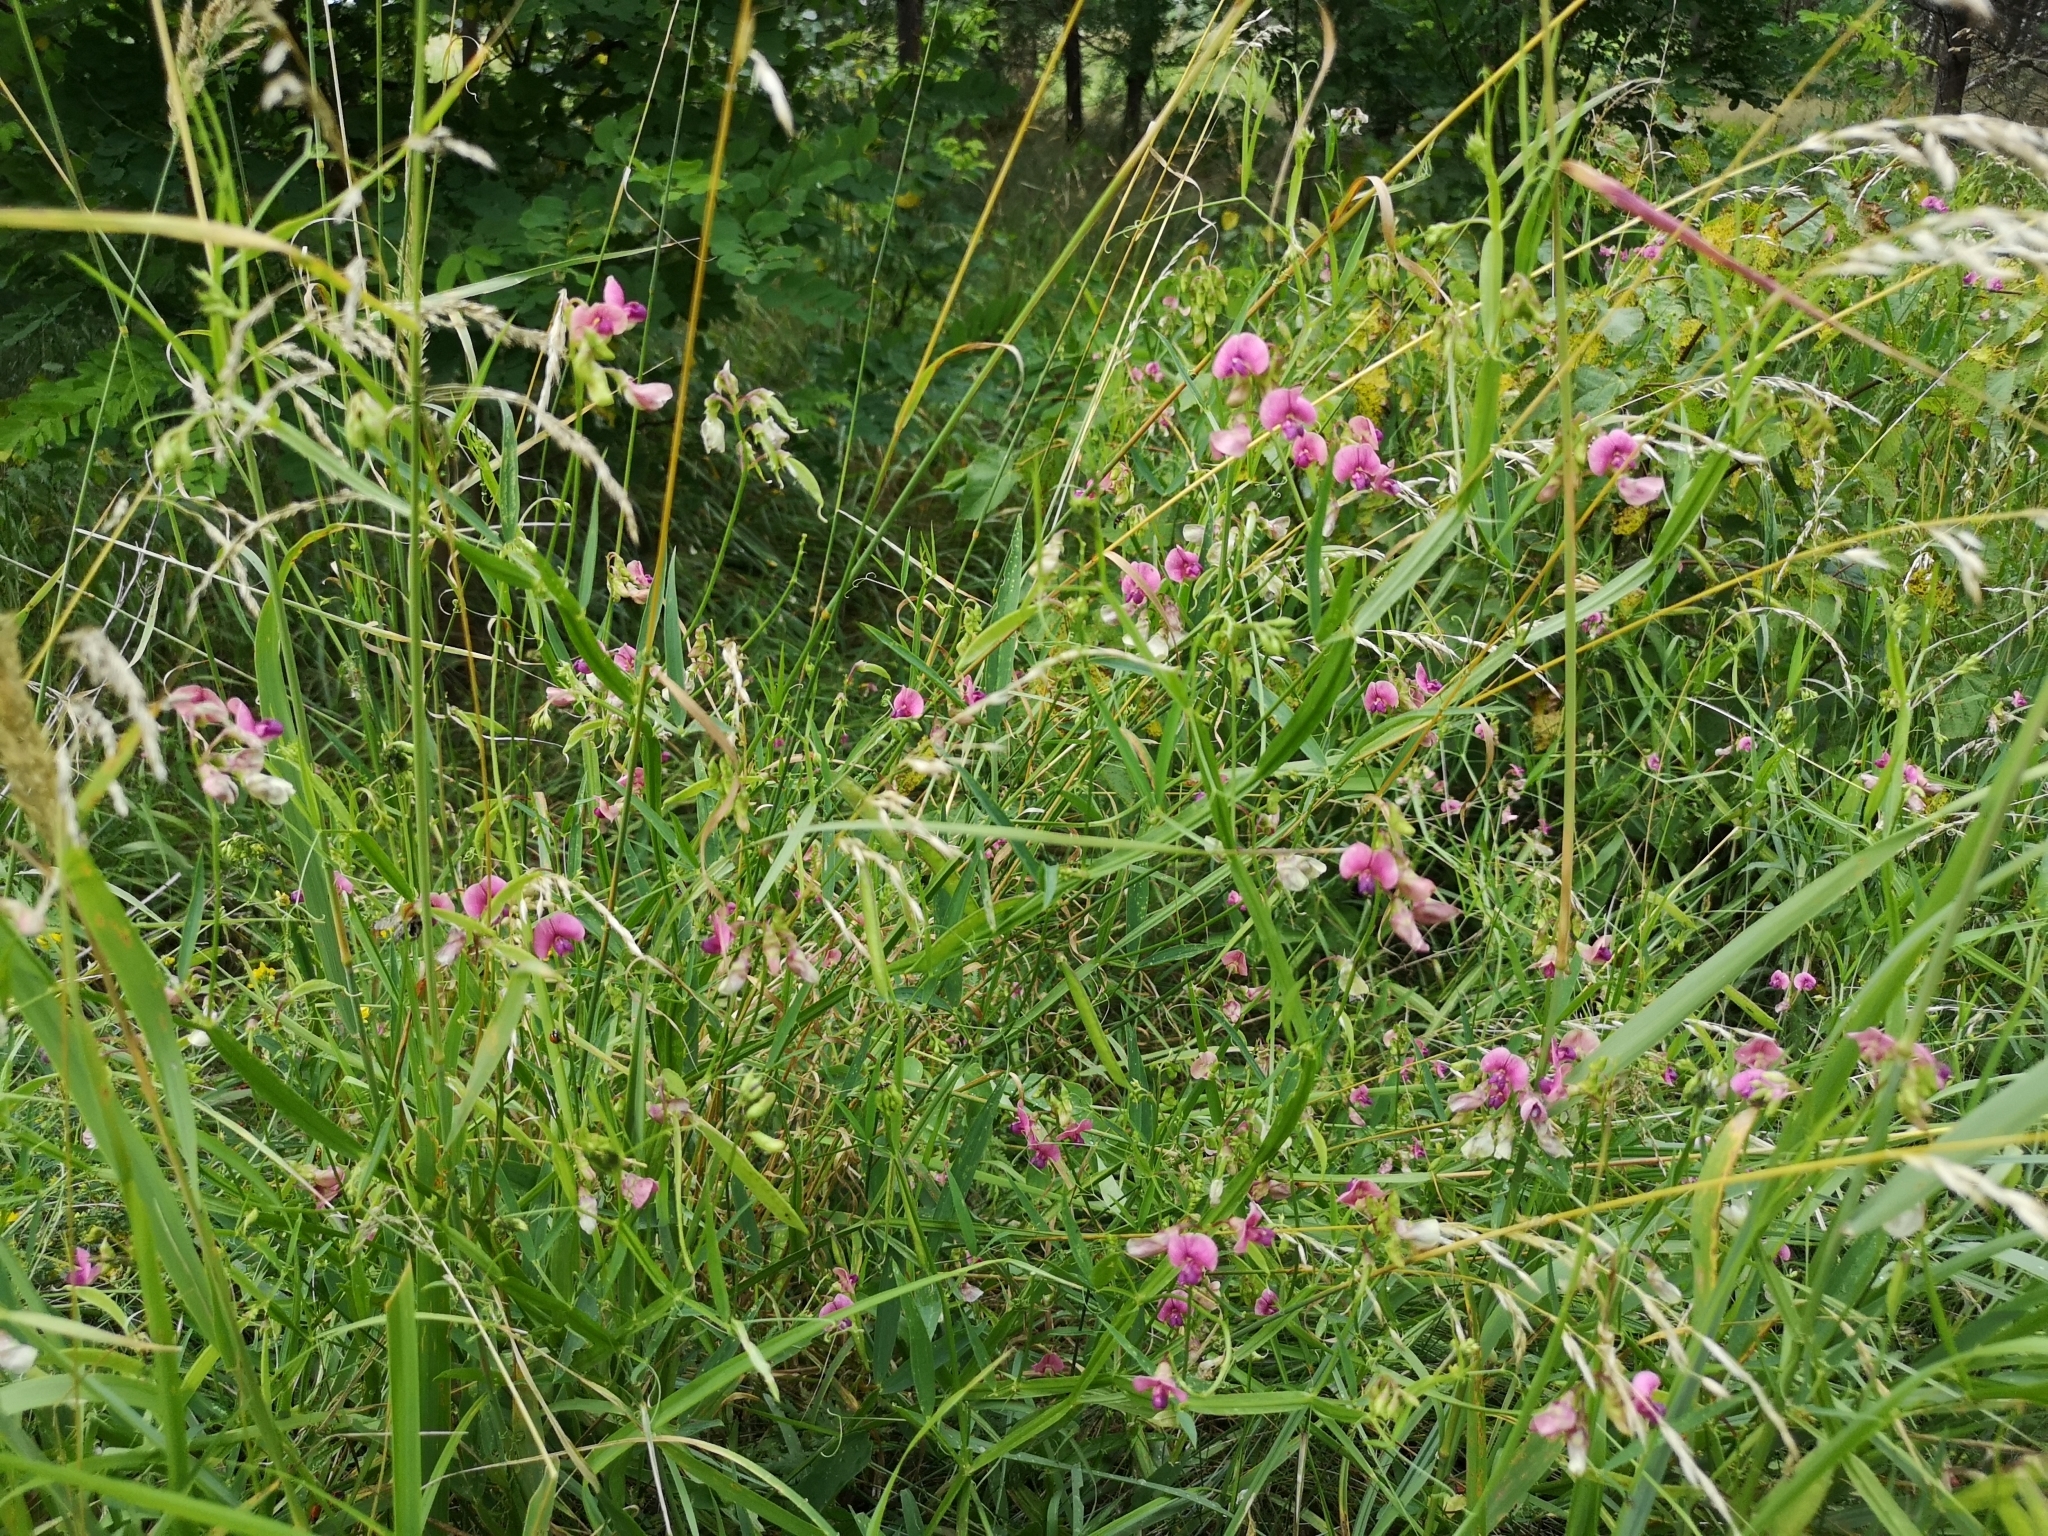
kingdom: Plantae
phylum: Tracheophyta
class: Magnoliopsida
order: Fabales
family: Fabaceae
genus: Lathyrus
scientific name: Lathyrus sylvestris
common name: Flat pea
